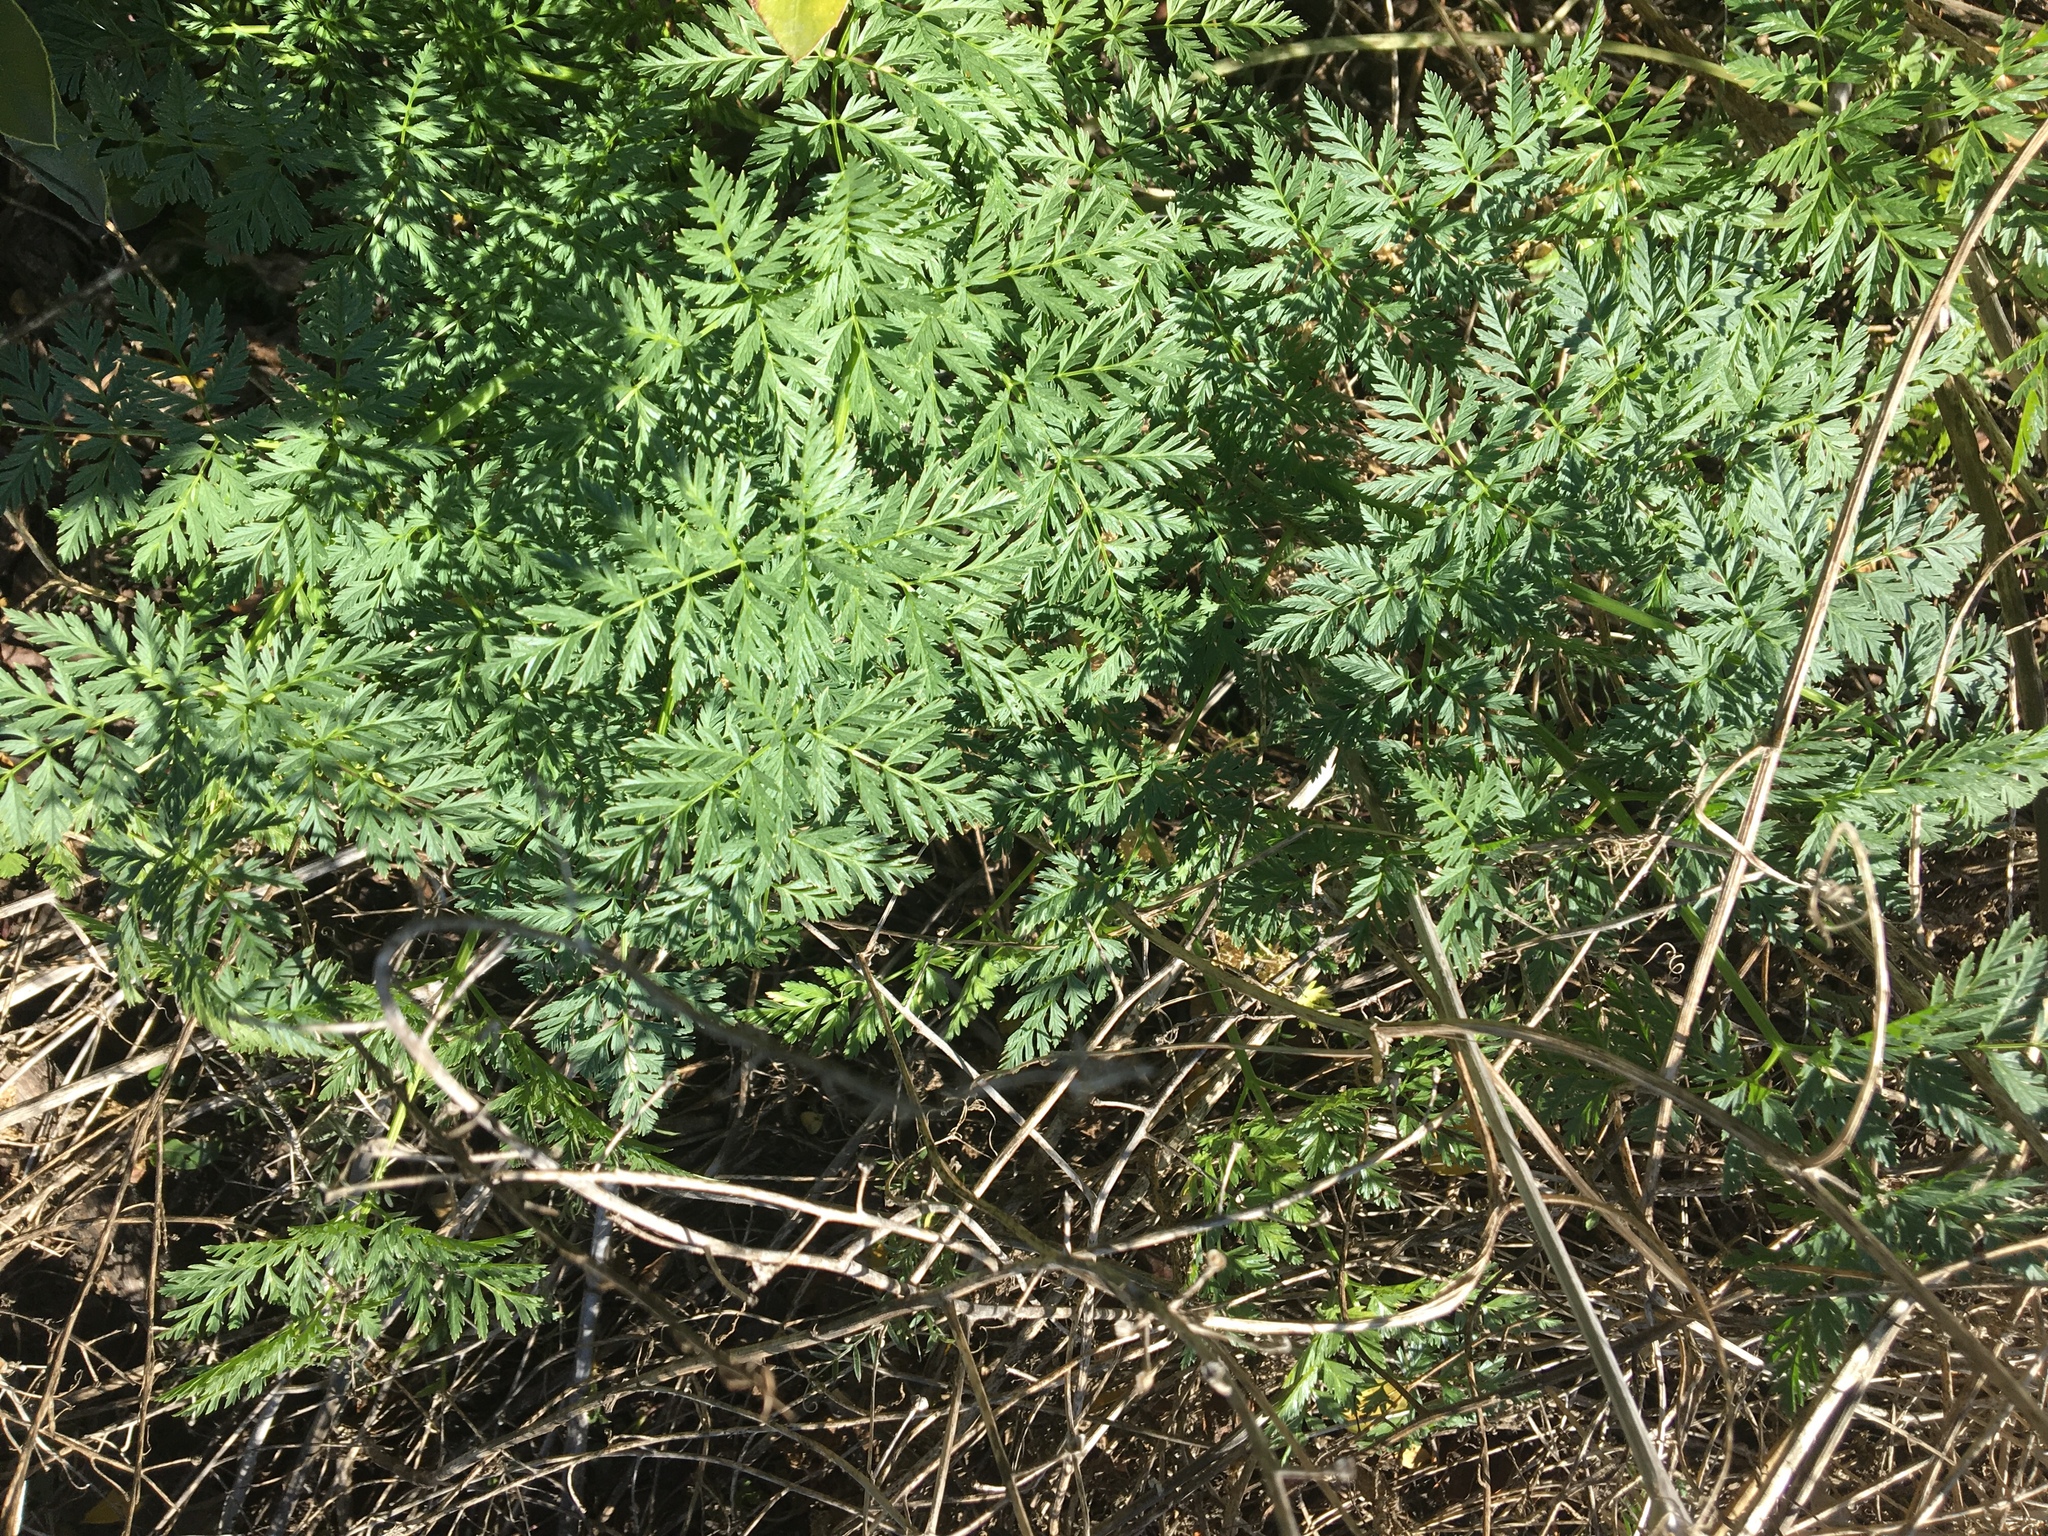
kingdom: Plantae
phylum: Tracheophyta
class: Magnoliopsida
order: Apiales
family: Apiaceae
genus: Conium
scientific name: Conium maculatum
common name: Hemlock
